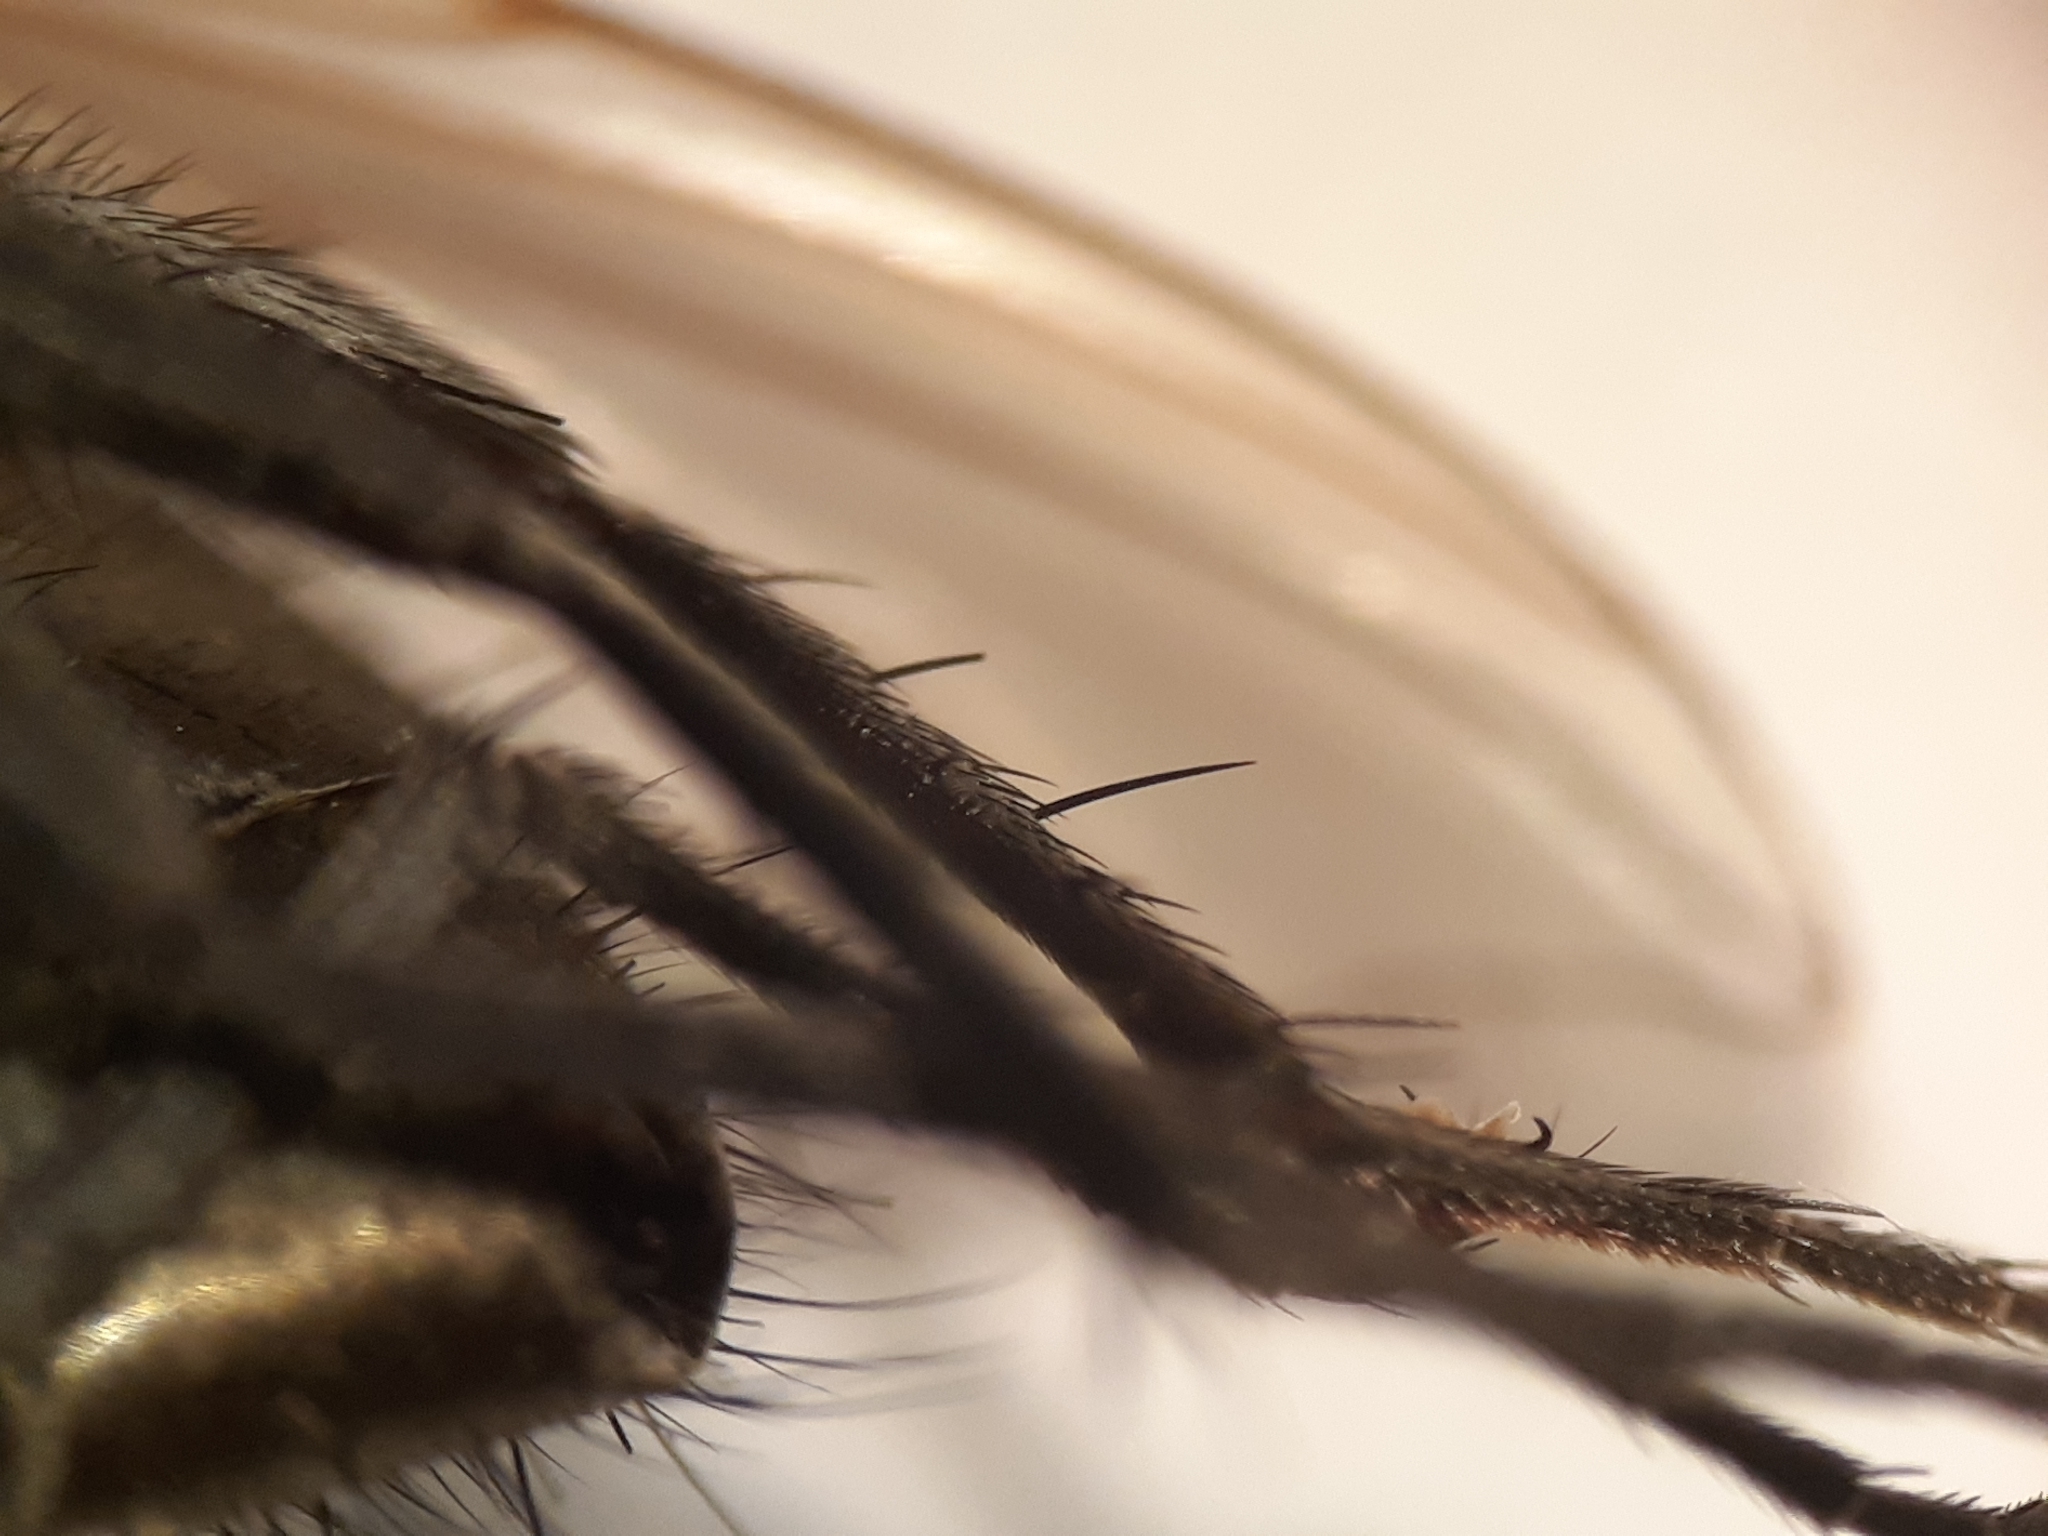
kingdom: Animalia
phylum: Arthropoda
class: Insecta
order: Diptera
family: Polleniidae
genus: Pollenia
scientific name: Pollenia rudis
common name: Awkward clusterfly
